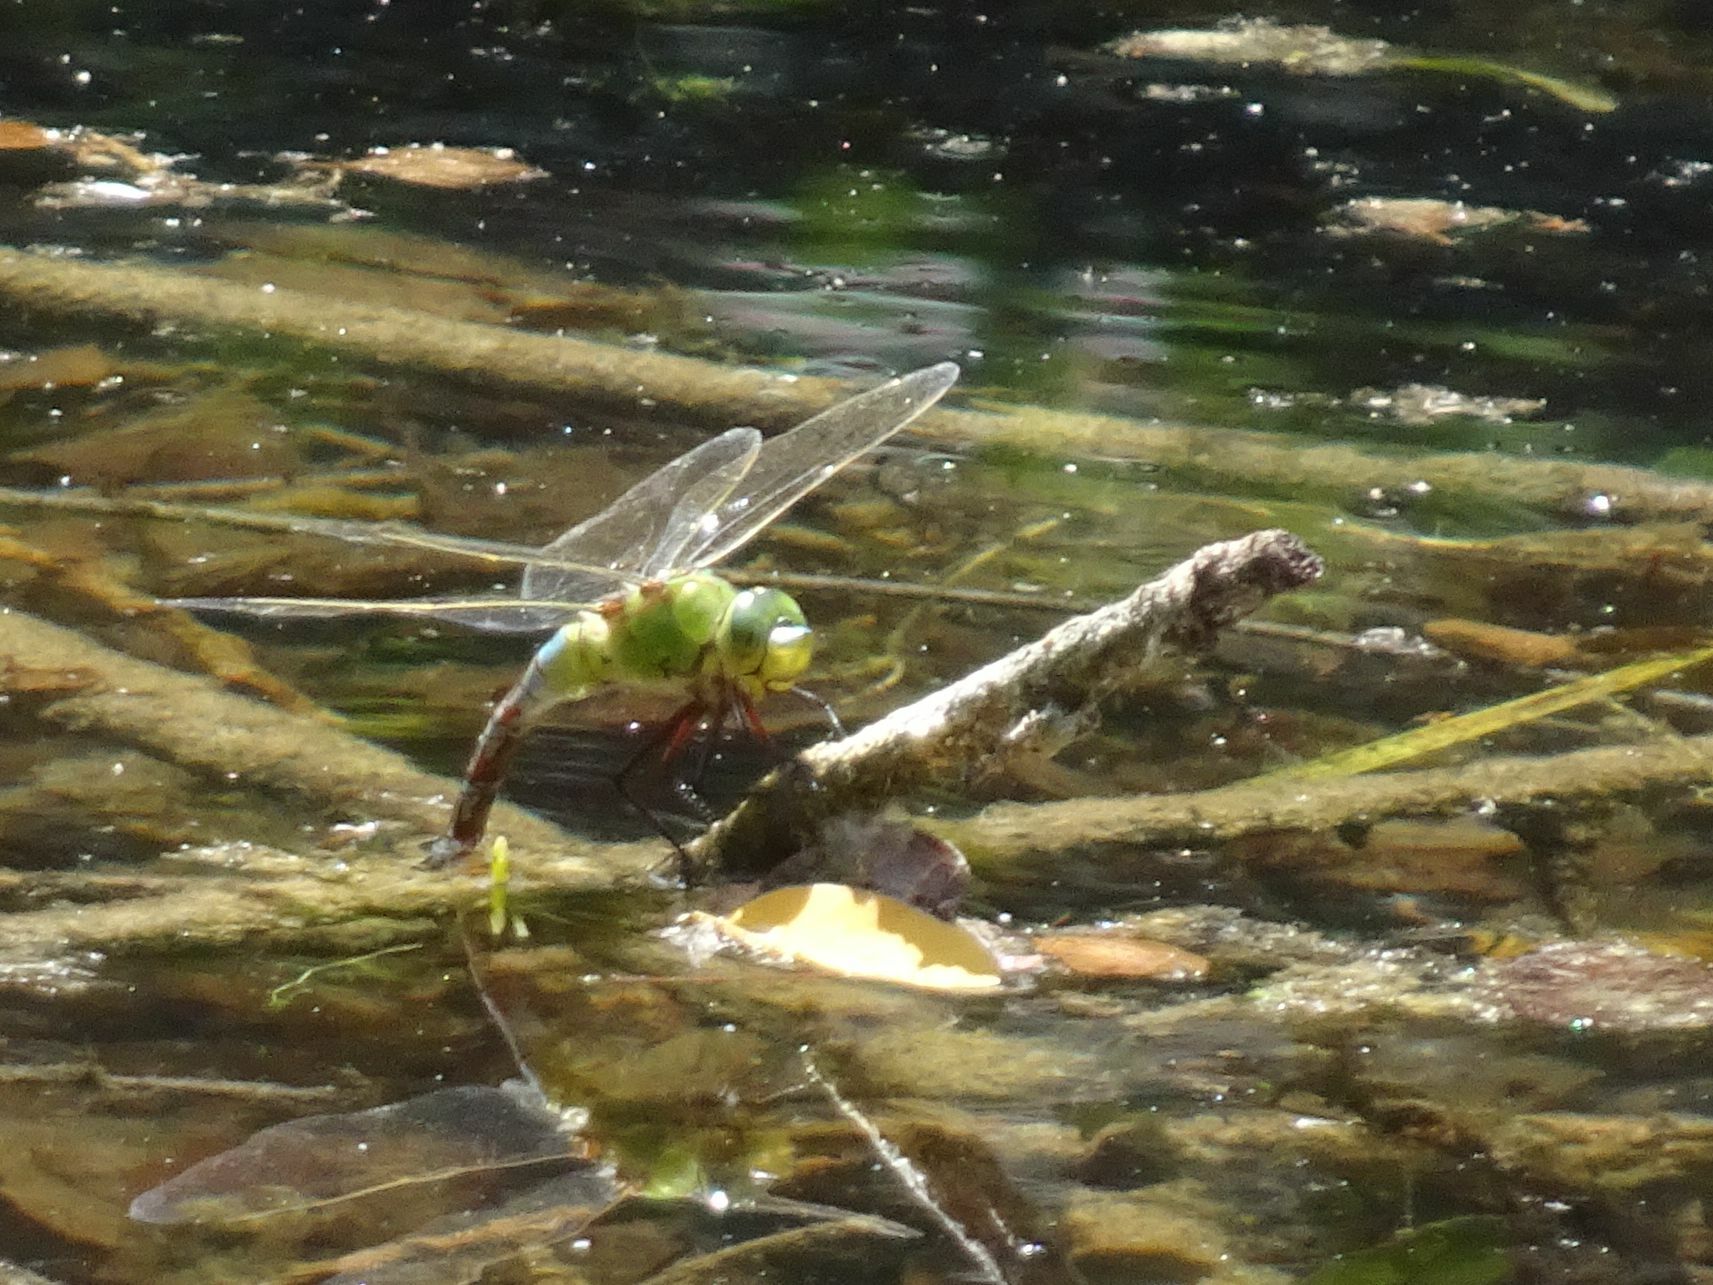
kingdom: Animalia
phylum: Arthropoda
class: Insecta
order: Odonata
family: Aeshnidae
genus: Anax
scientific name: Anax imperator
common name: Emperor dragonfly
